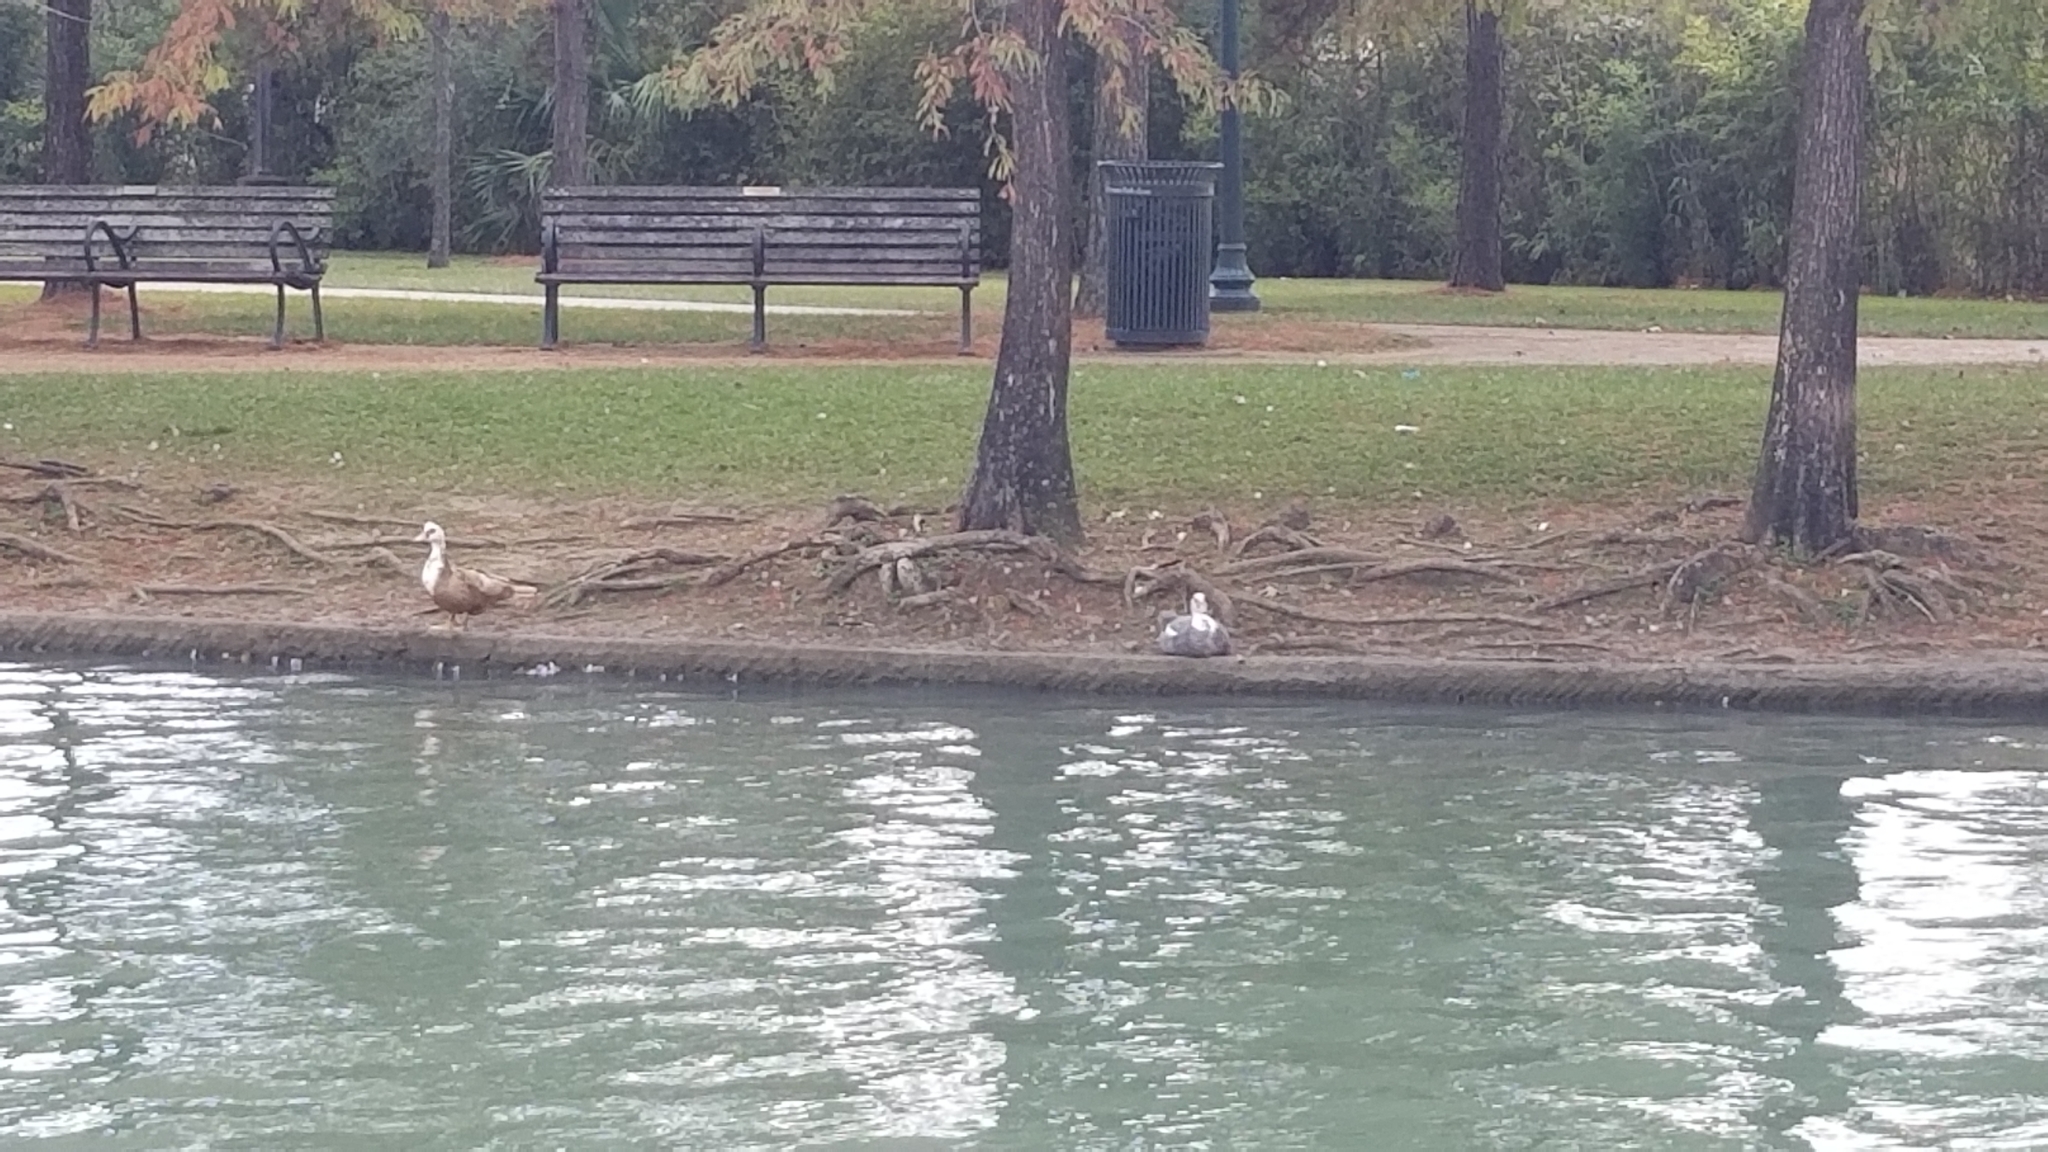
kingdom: Animalia
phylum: Chordata
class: Aves
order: Anseriformes
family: Anatidae
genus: Cairina
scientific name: Cairina moschata
